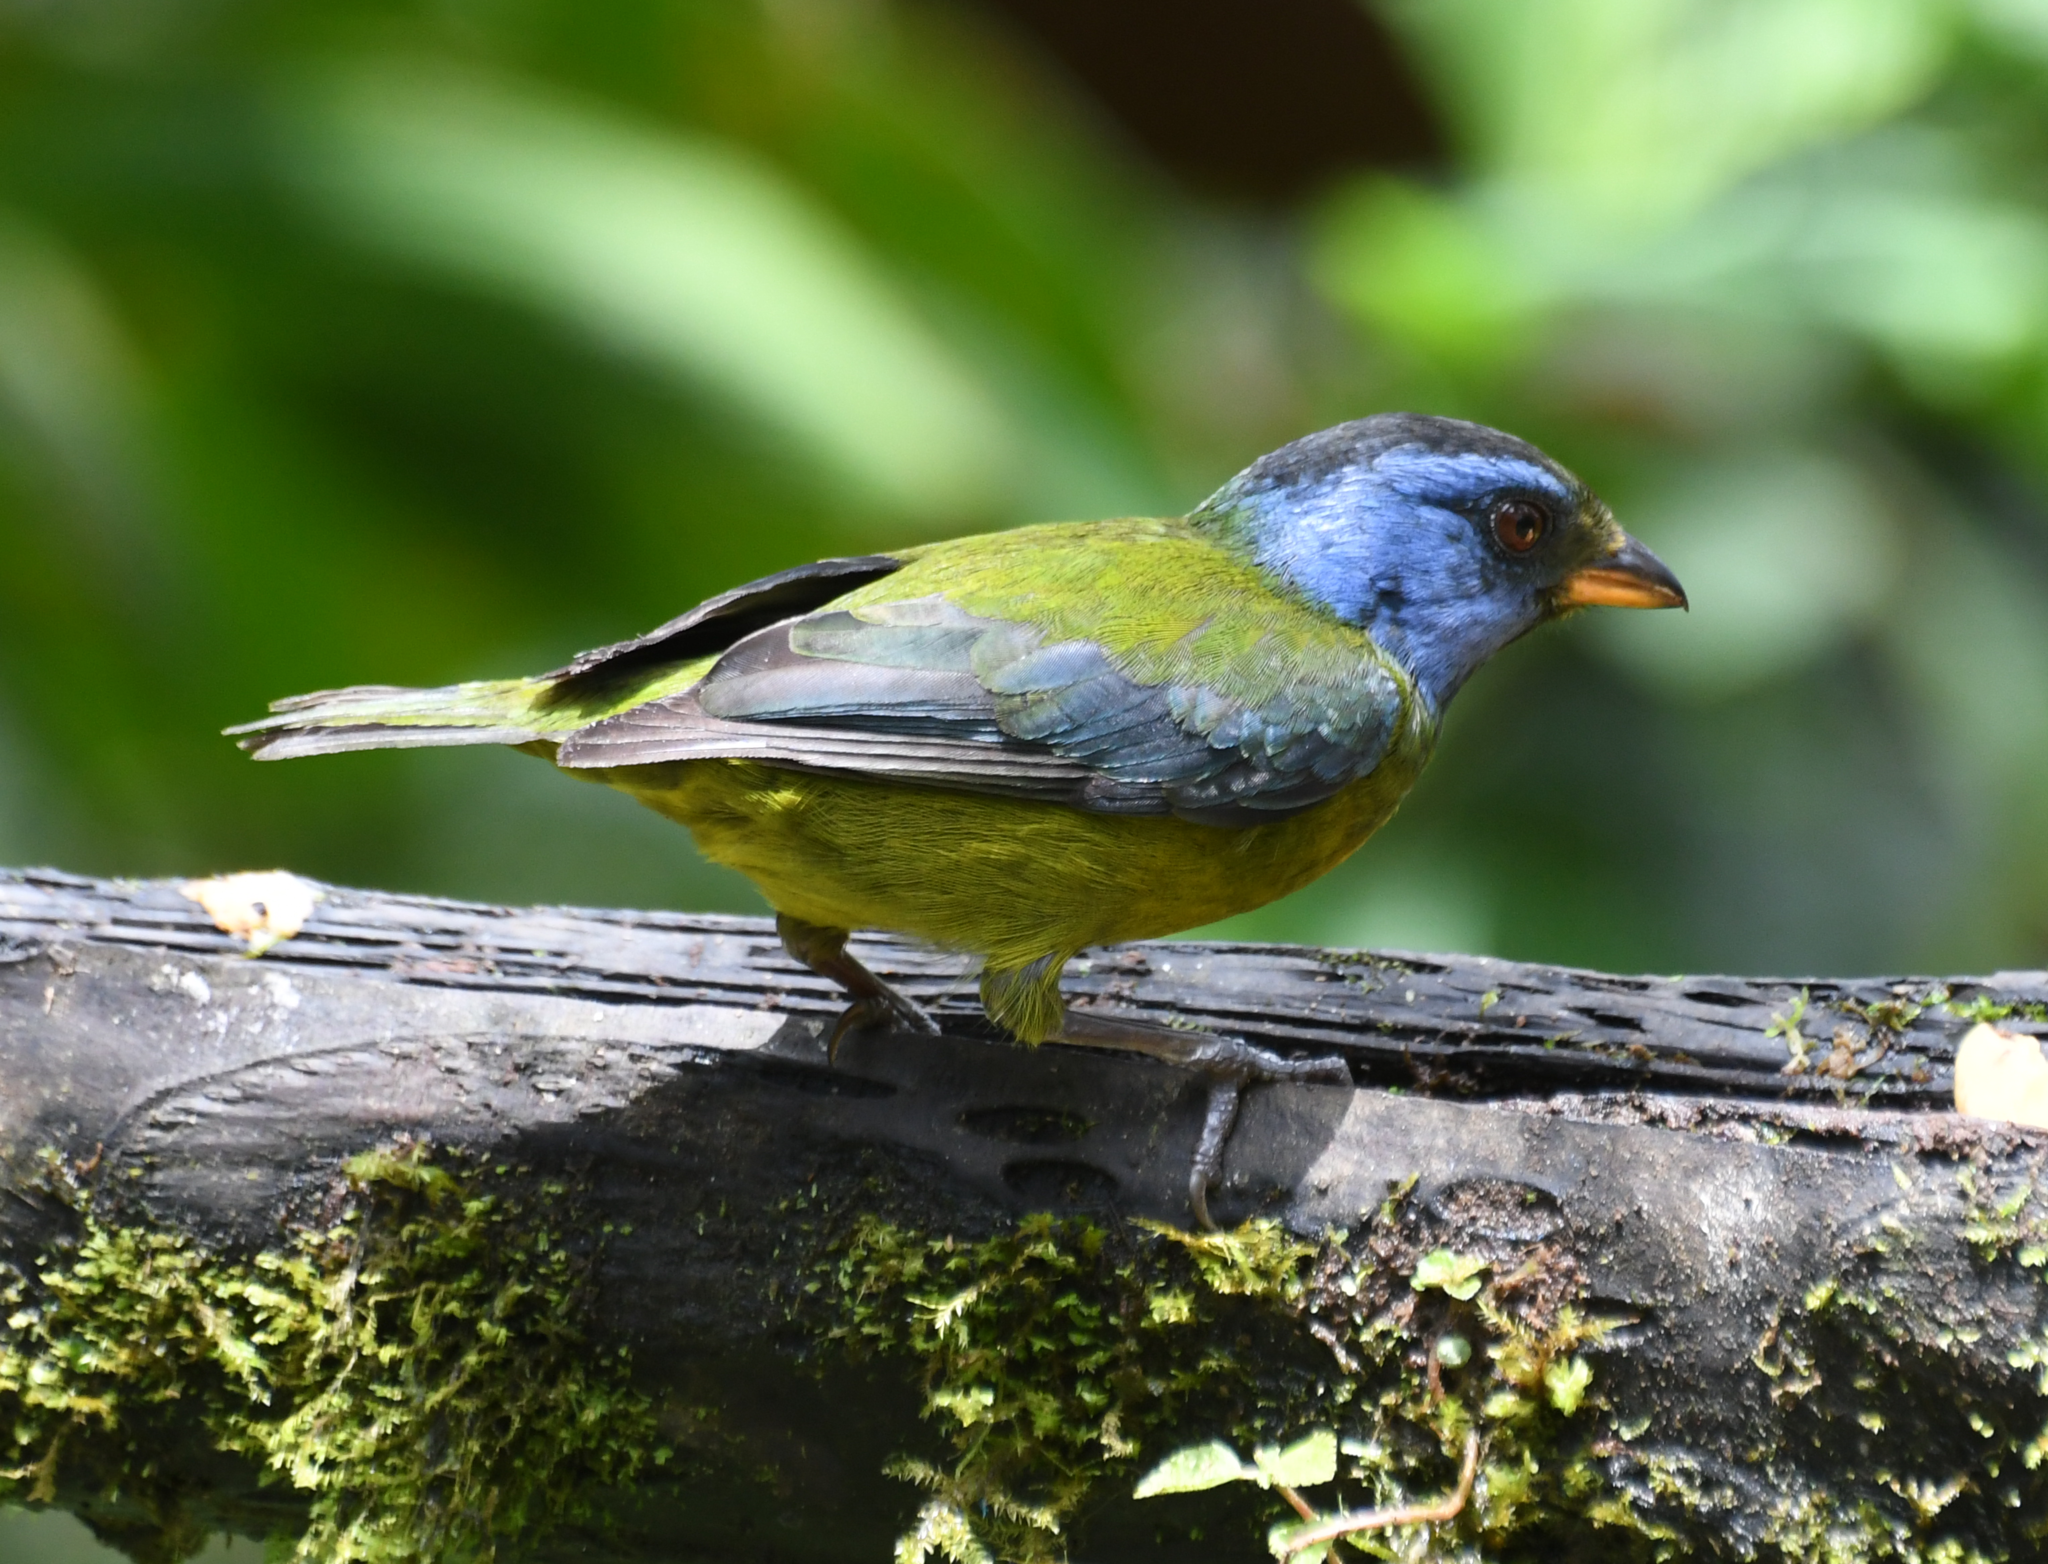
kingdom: Animalia
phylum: Chordata
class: Aves
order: Passeriformes
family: Thraupidae
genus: Bangsia
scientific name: Bangsia edwardsi
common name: Moss-backed tanager
